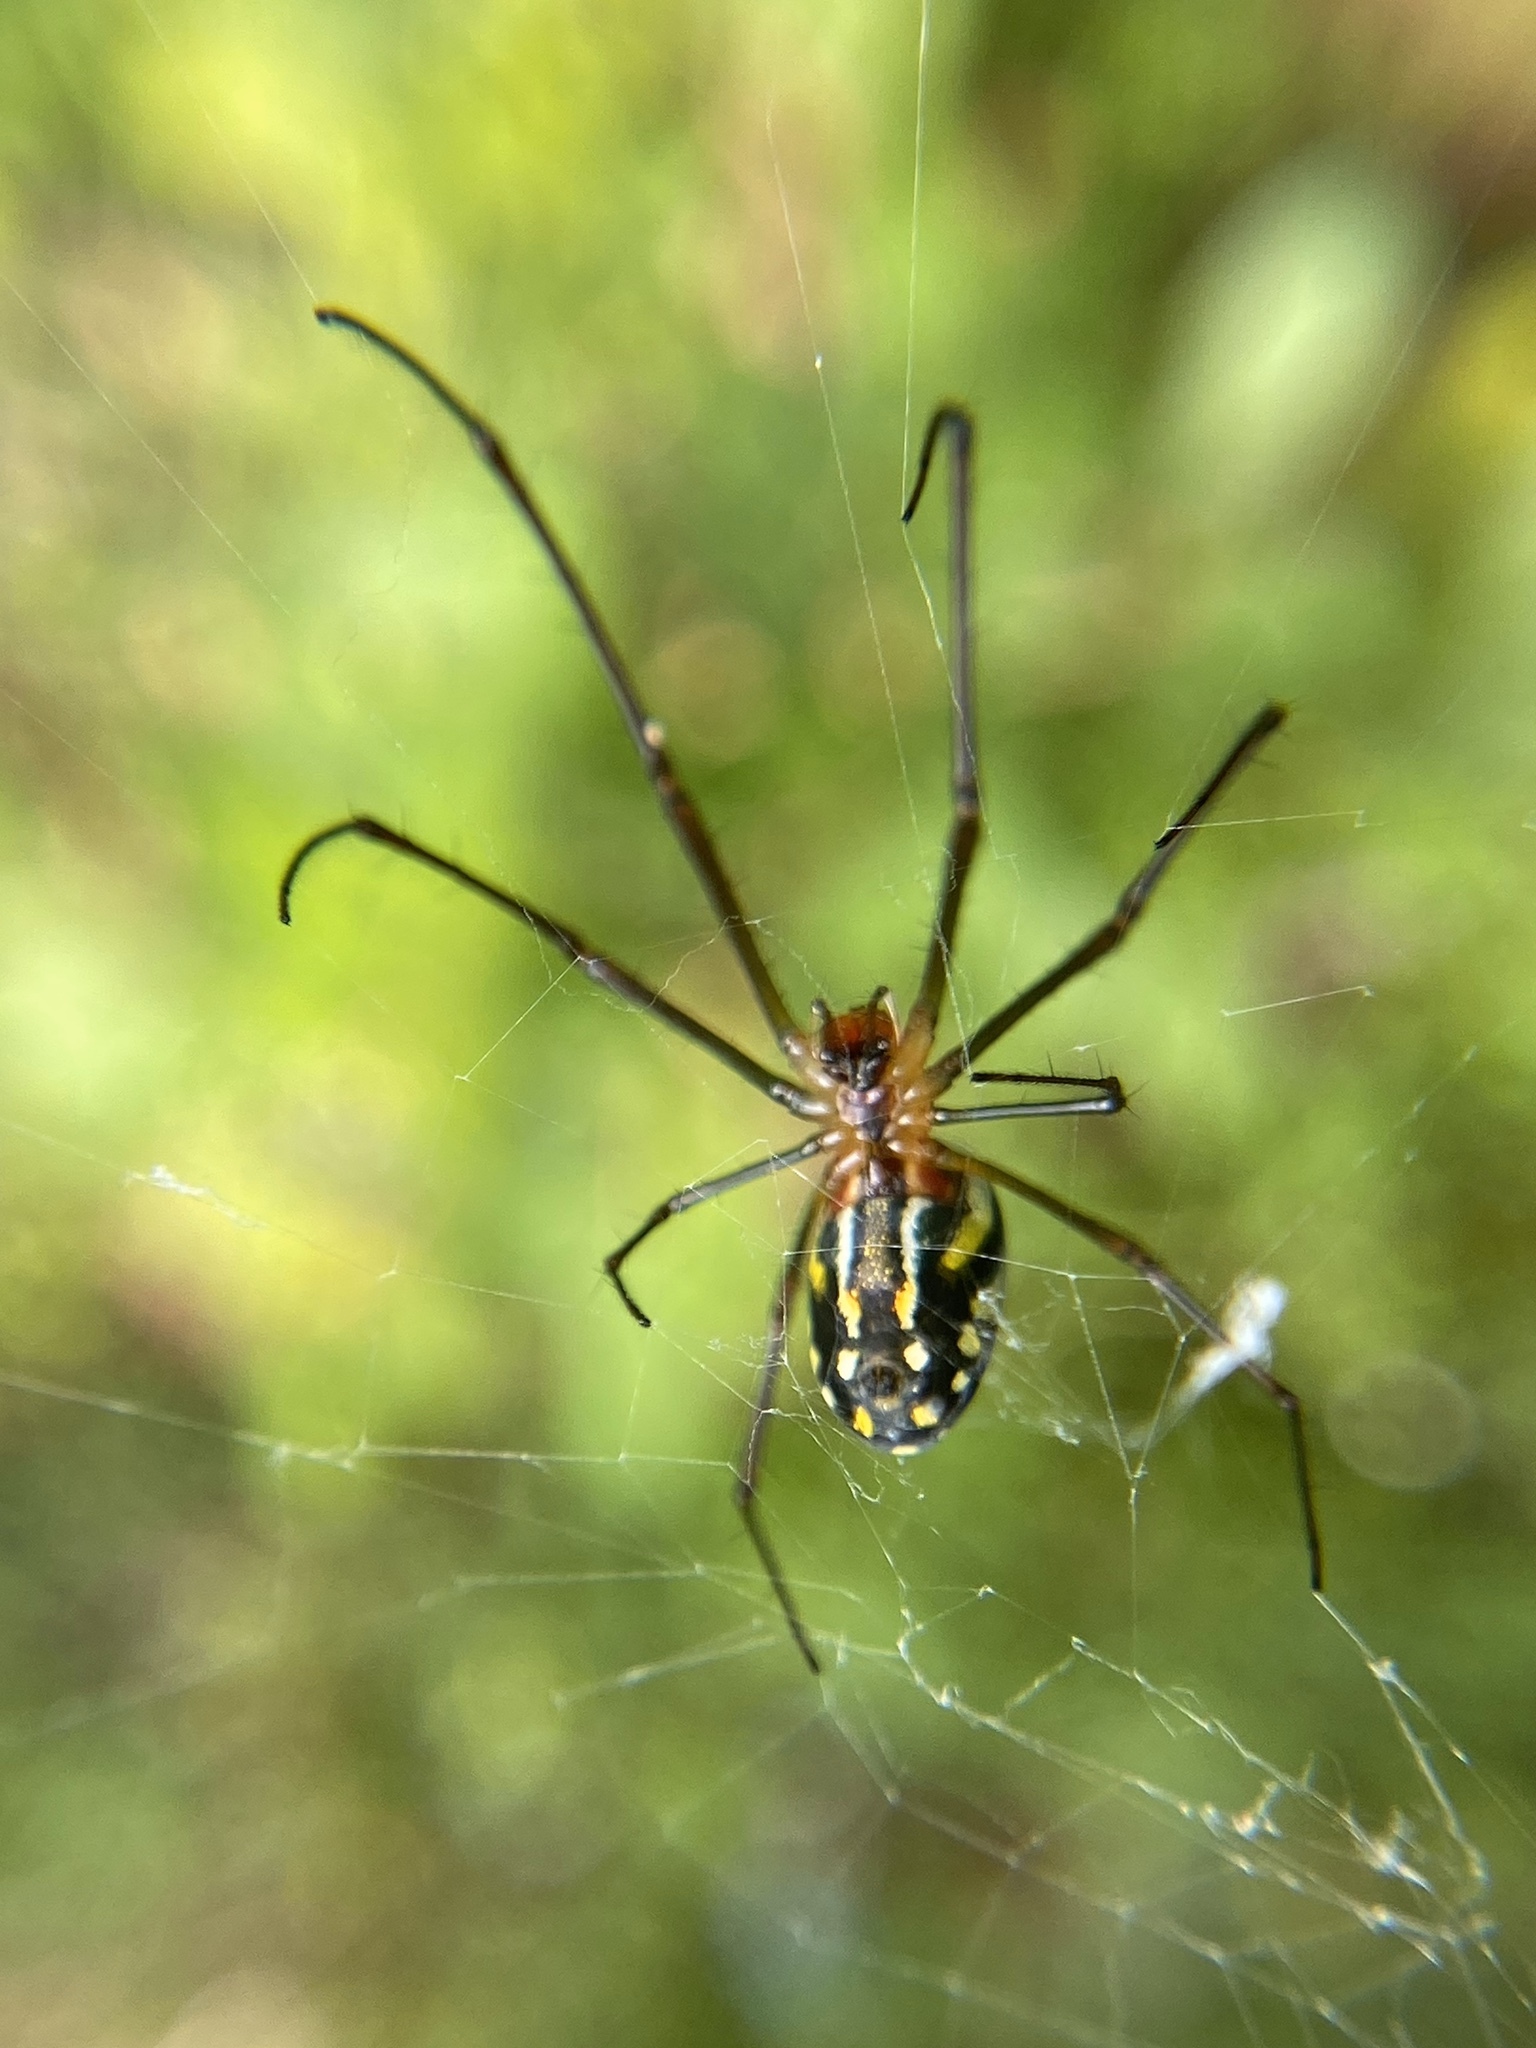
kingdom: Animalia
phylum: Arthropoda
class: Arachnida
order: Araneae
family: Tetragnathidae
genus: Leucauge
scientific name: Leucauge argyra
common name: Longjawed orb weavers
